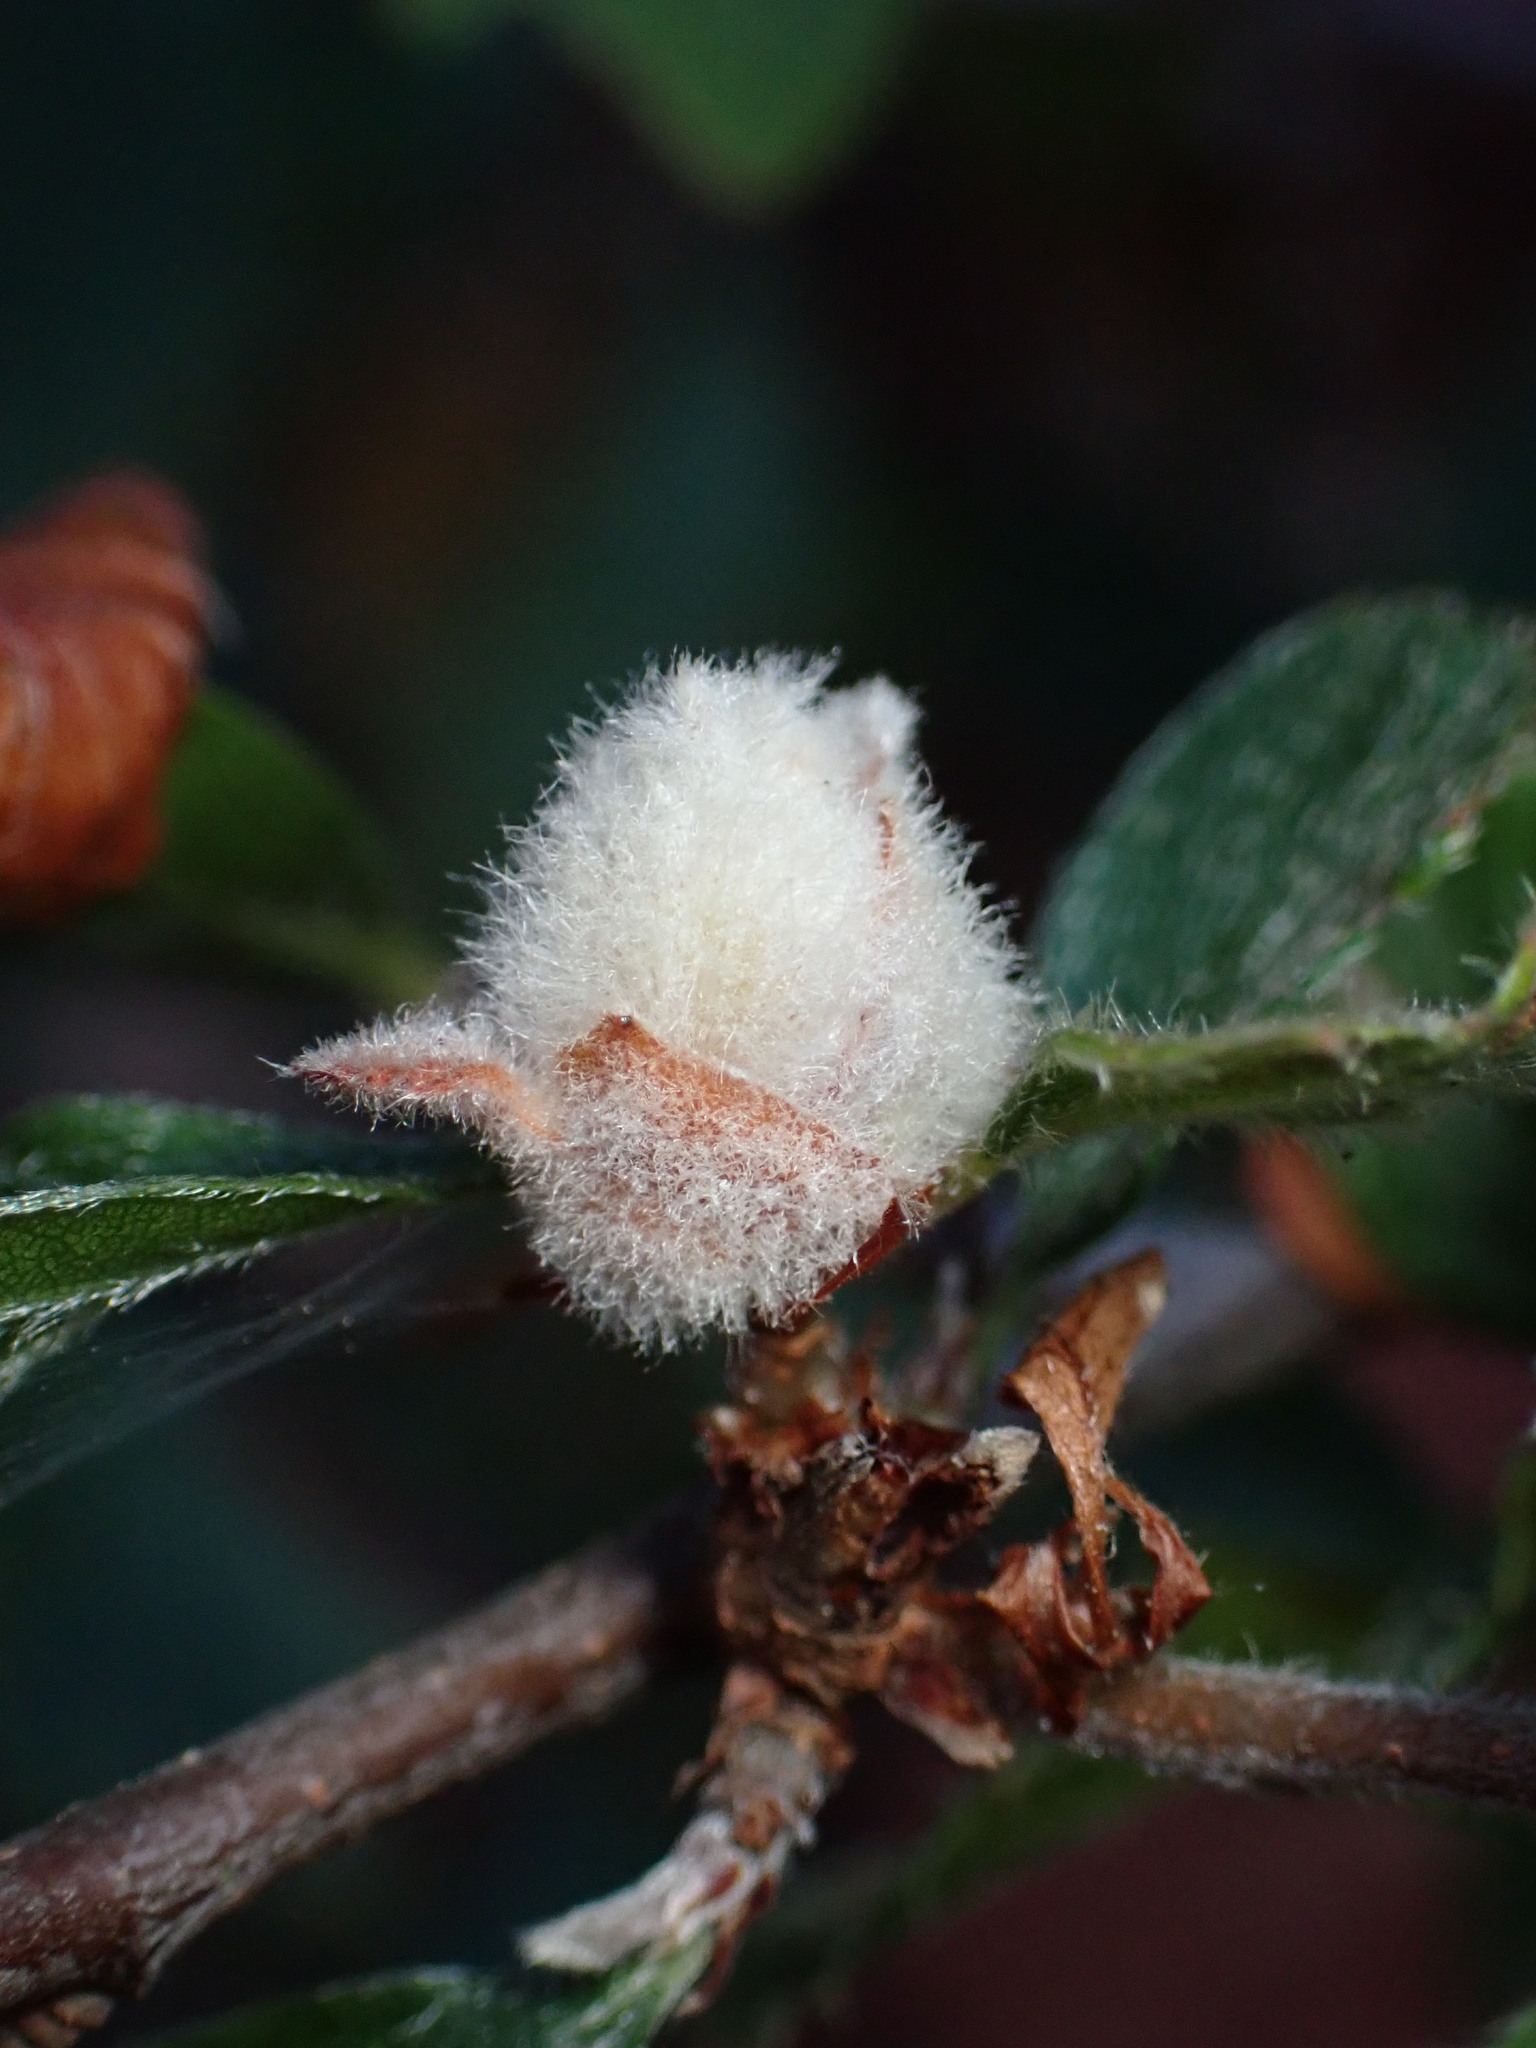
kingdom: Animalia
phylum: Arthropoda
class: Insecta
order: Diptera
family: Cecidomyiidae
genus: Dasineura
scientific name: Dasineura cercocarpi
